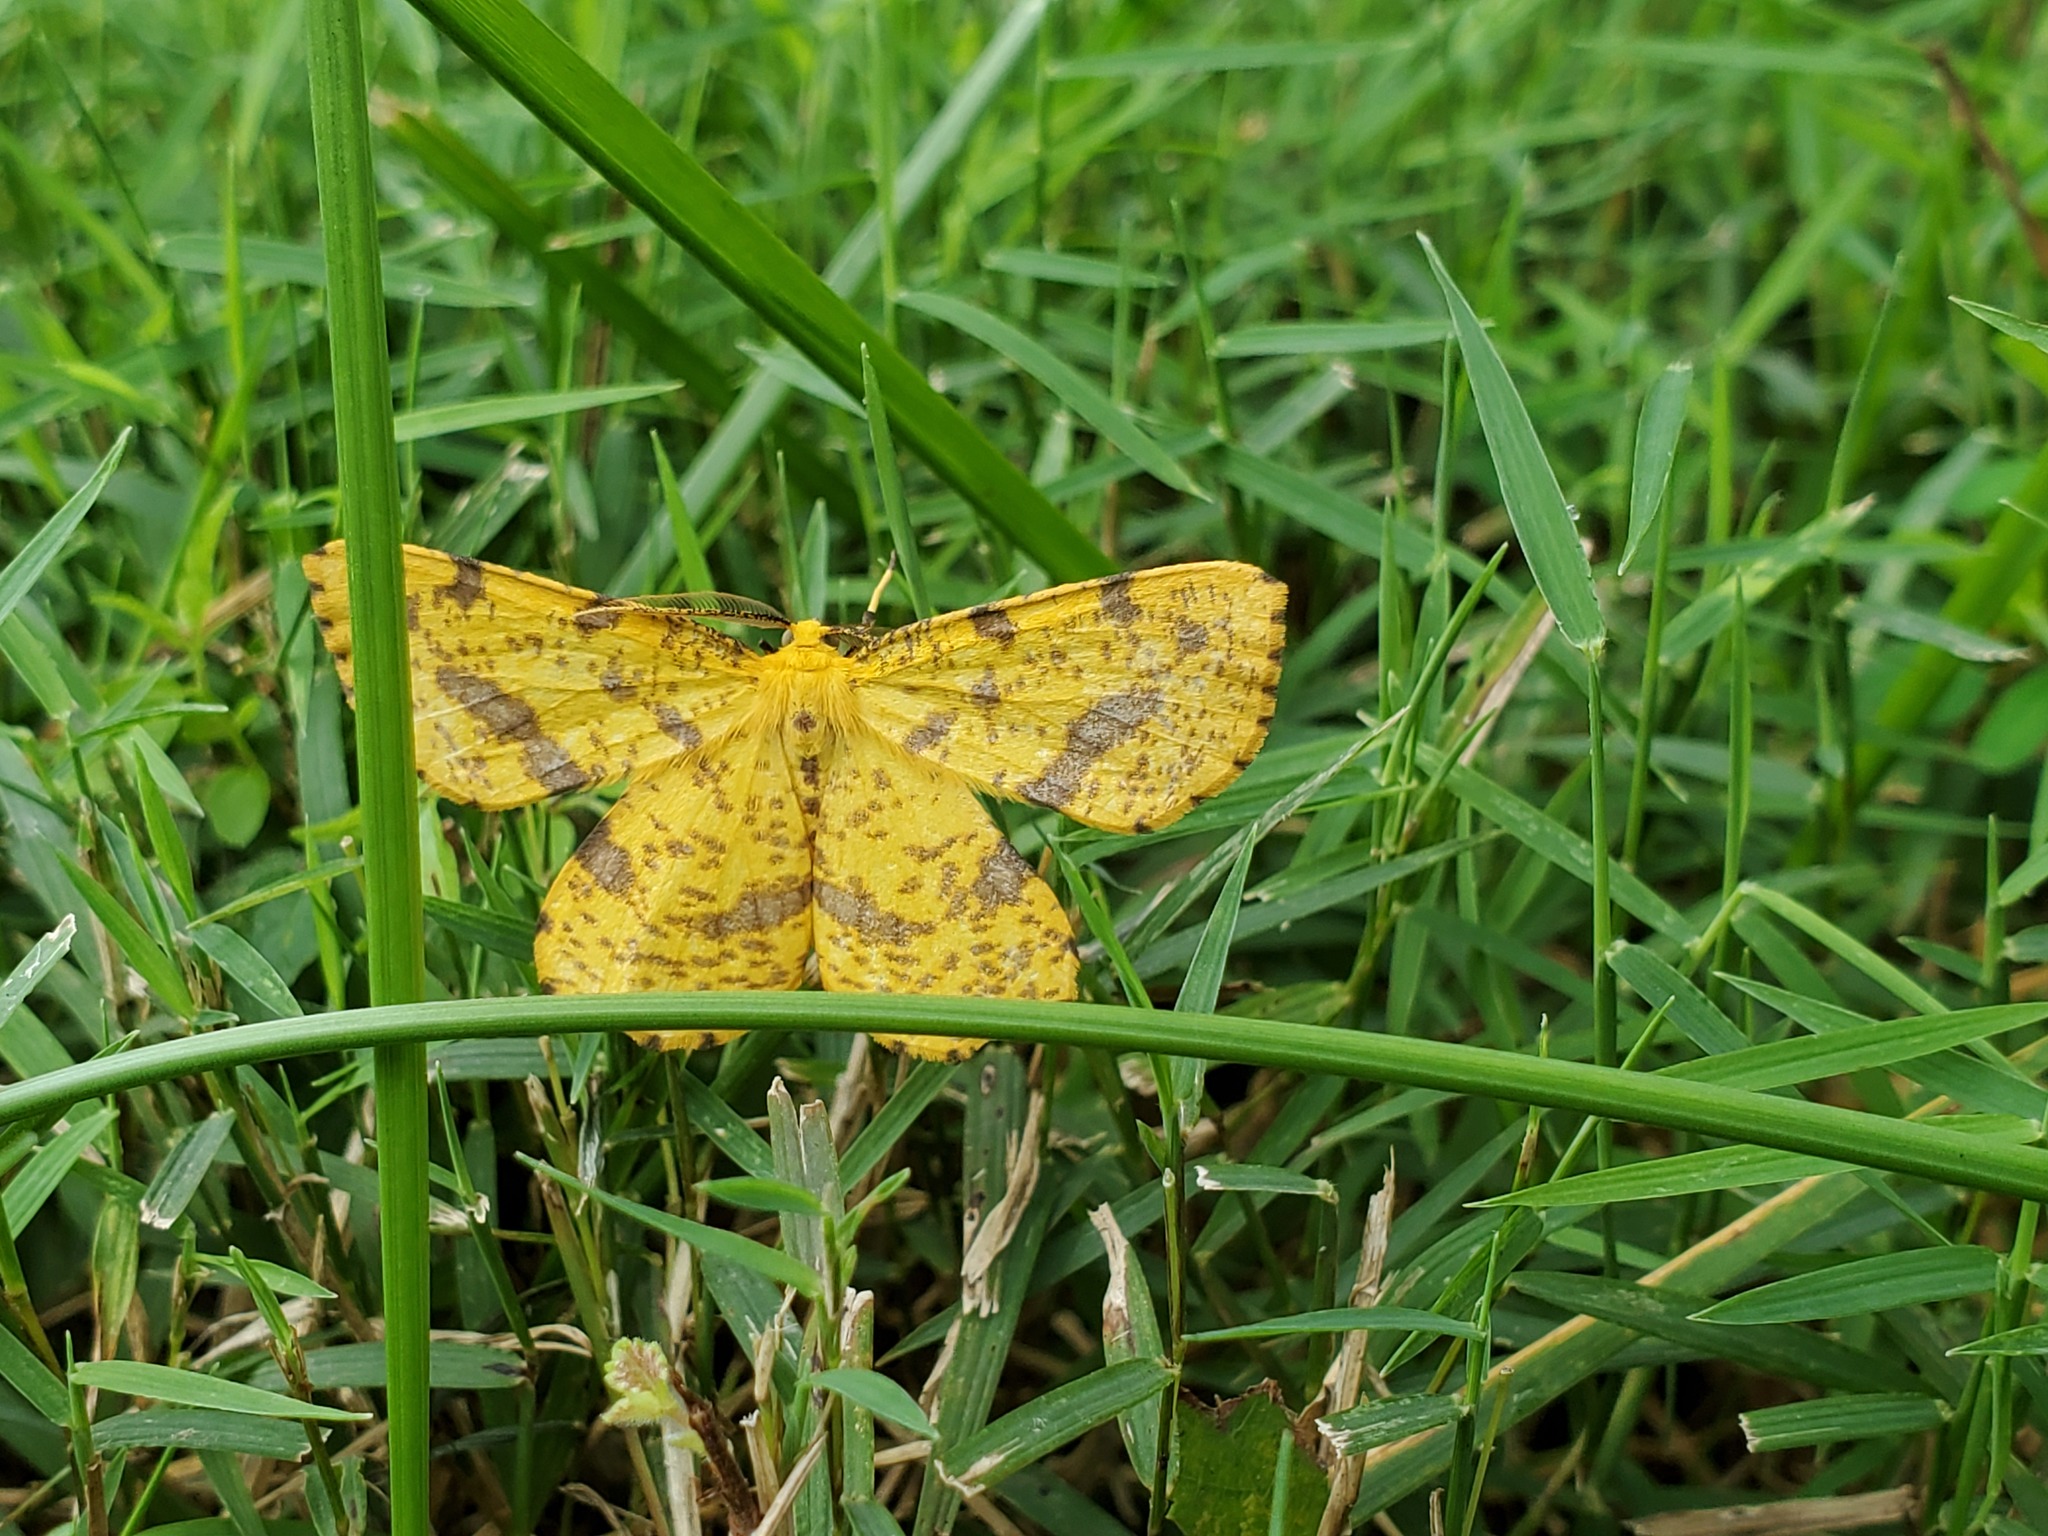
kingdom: Animalia
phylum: Arthropoda
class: Insecta
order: Lepidoptera
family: Geometridae
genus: Xanthotype
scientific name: Xanthotype
